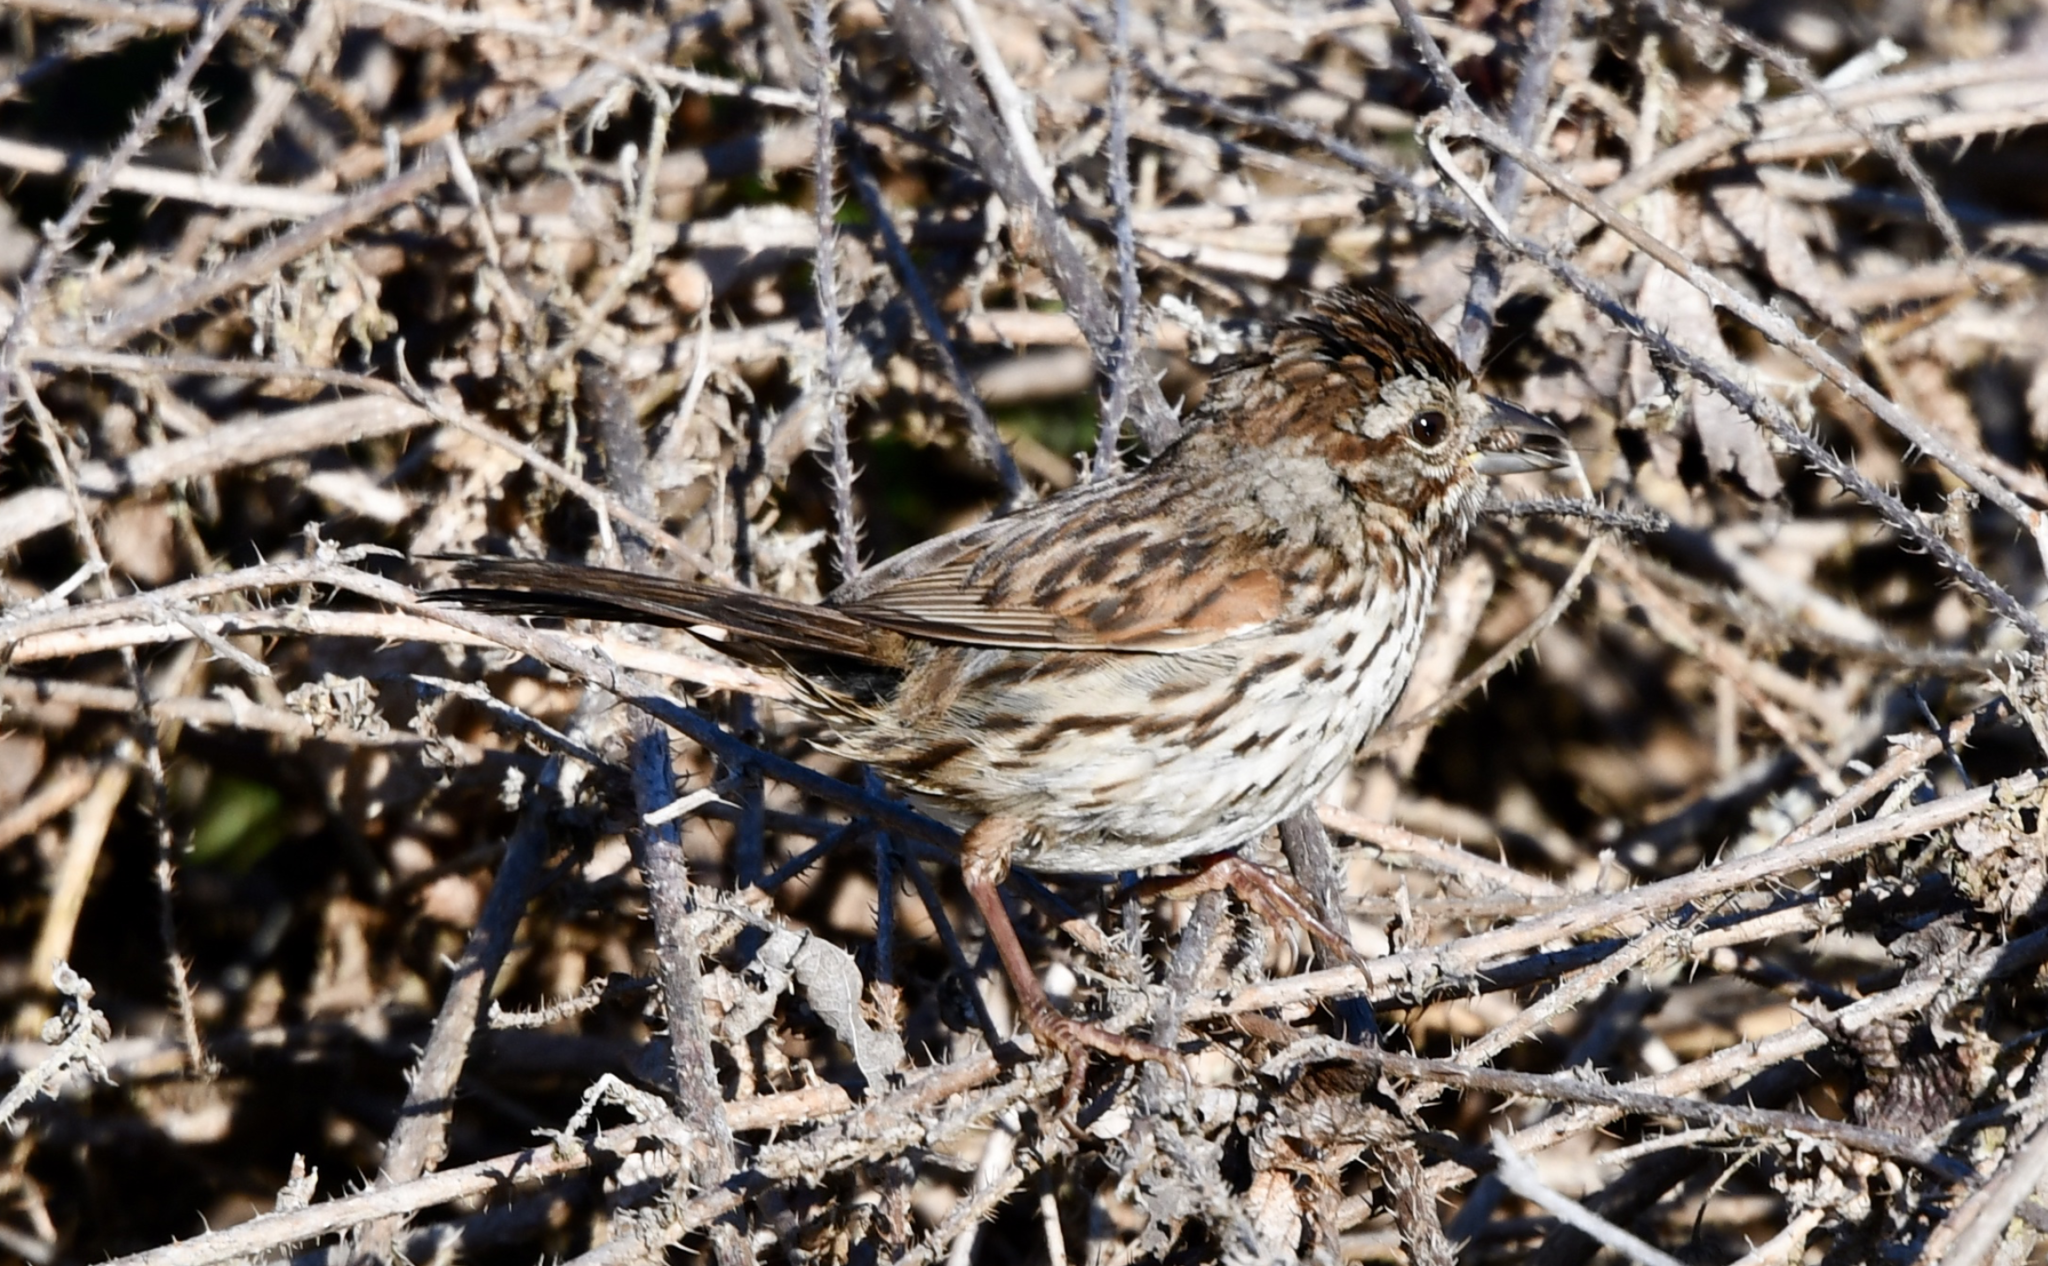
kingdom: Animalia
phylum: Chordata
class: Aves
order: Passeriformes
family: Passerellidae
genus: Melospiza
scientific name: Melospiza melodia
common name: Song sparrow
